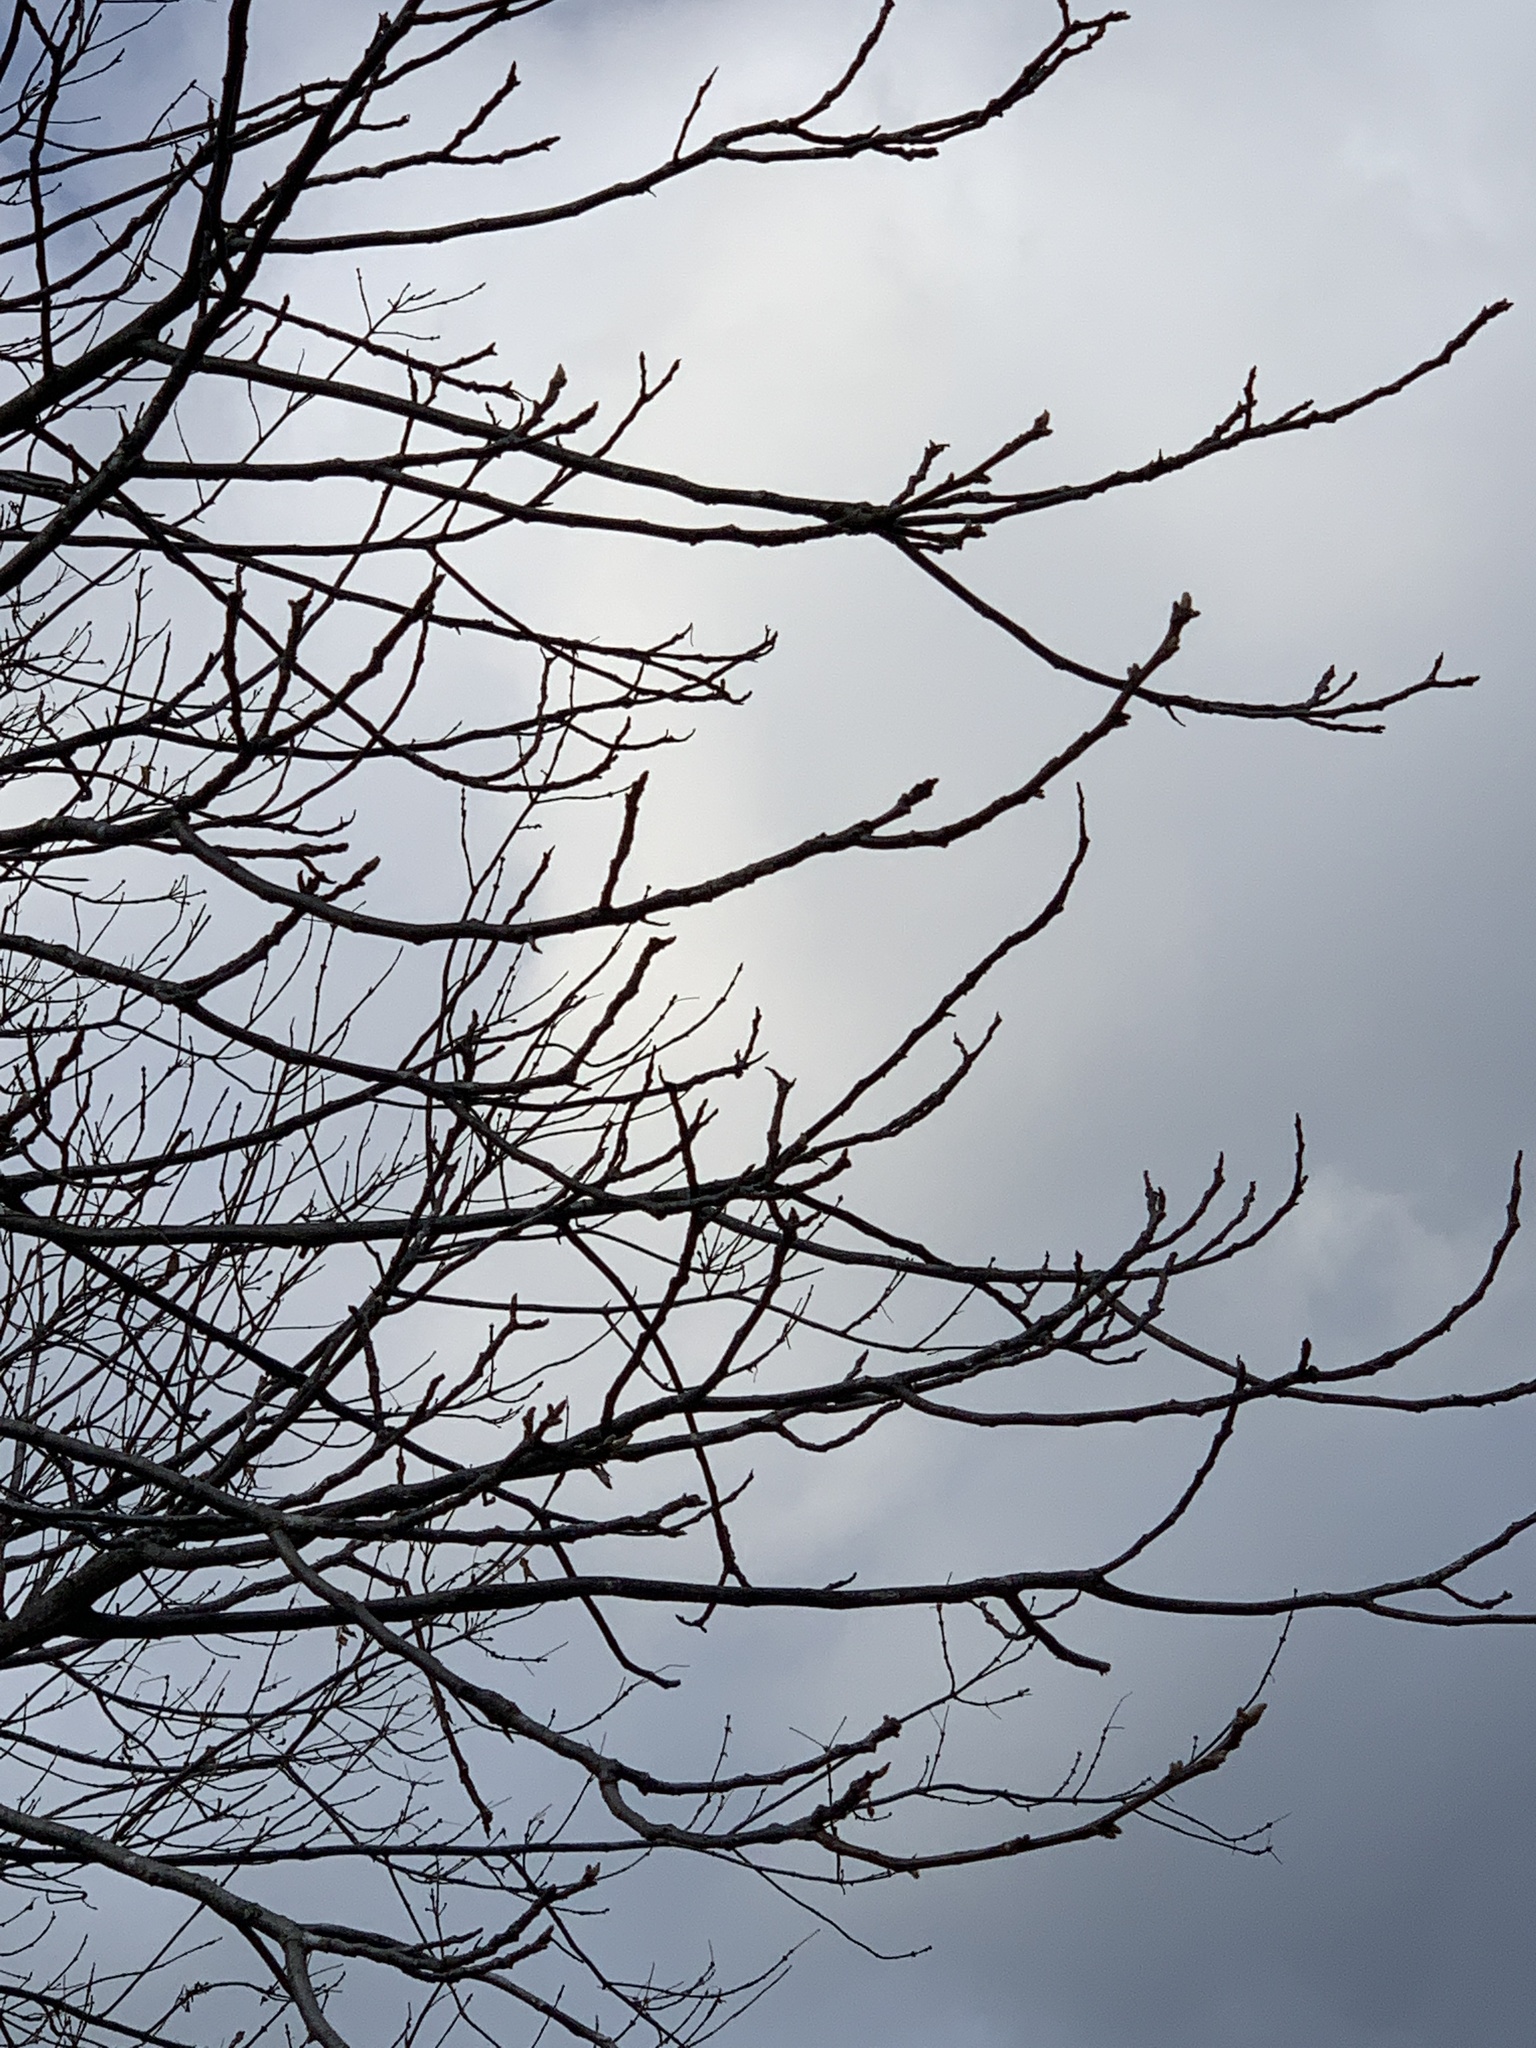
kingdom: Plantae
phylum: Tracheophyta
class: Magnoliopsida
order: Fagales
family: Juglandaceae
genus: Juglans
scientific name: Juglans cinerea
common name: Butternut
